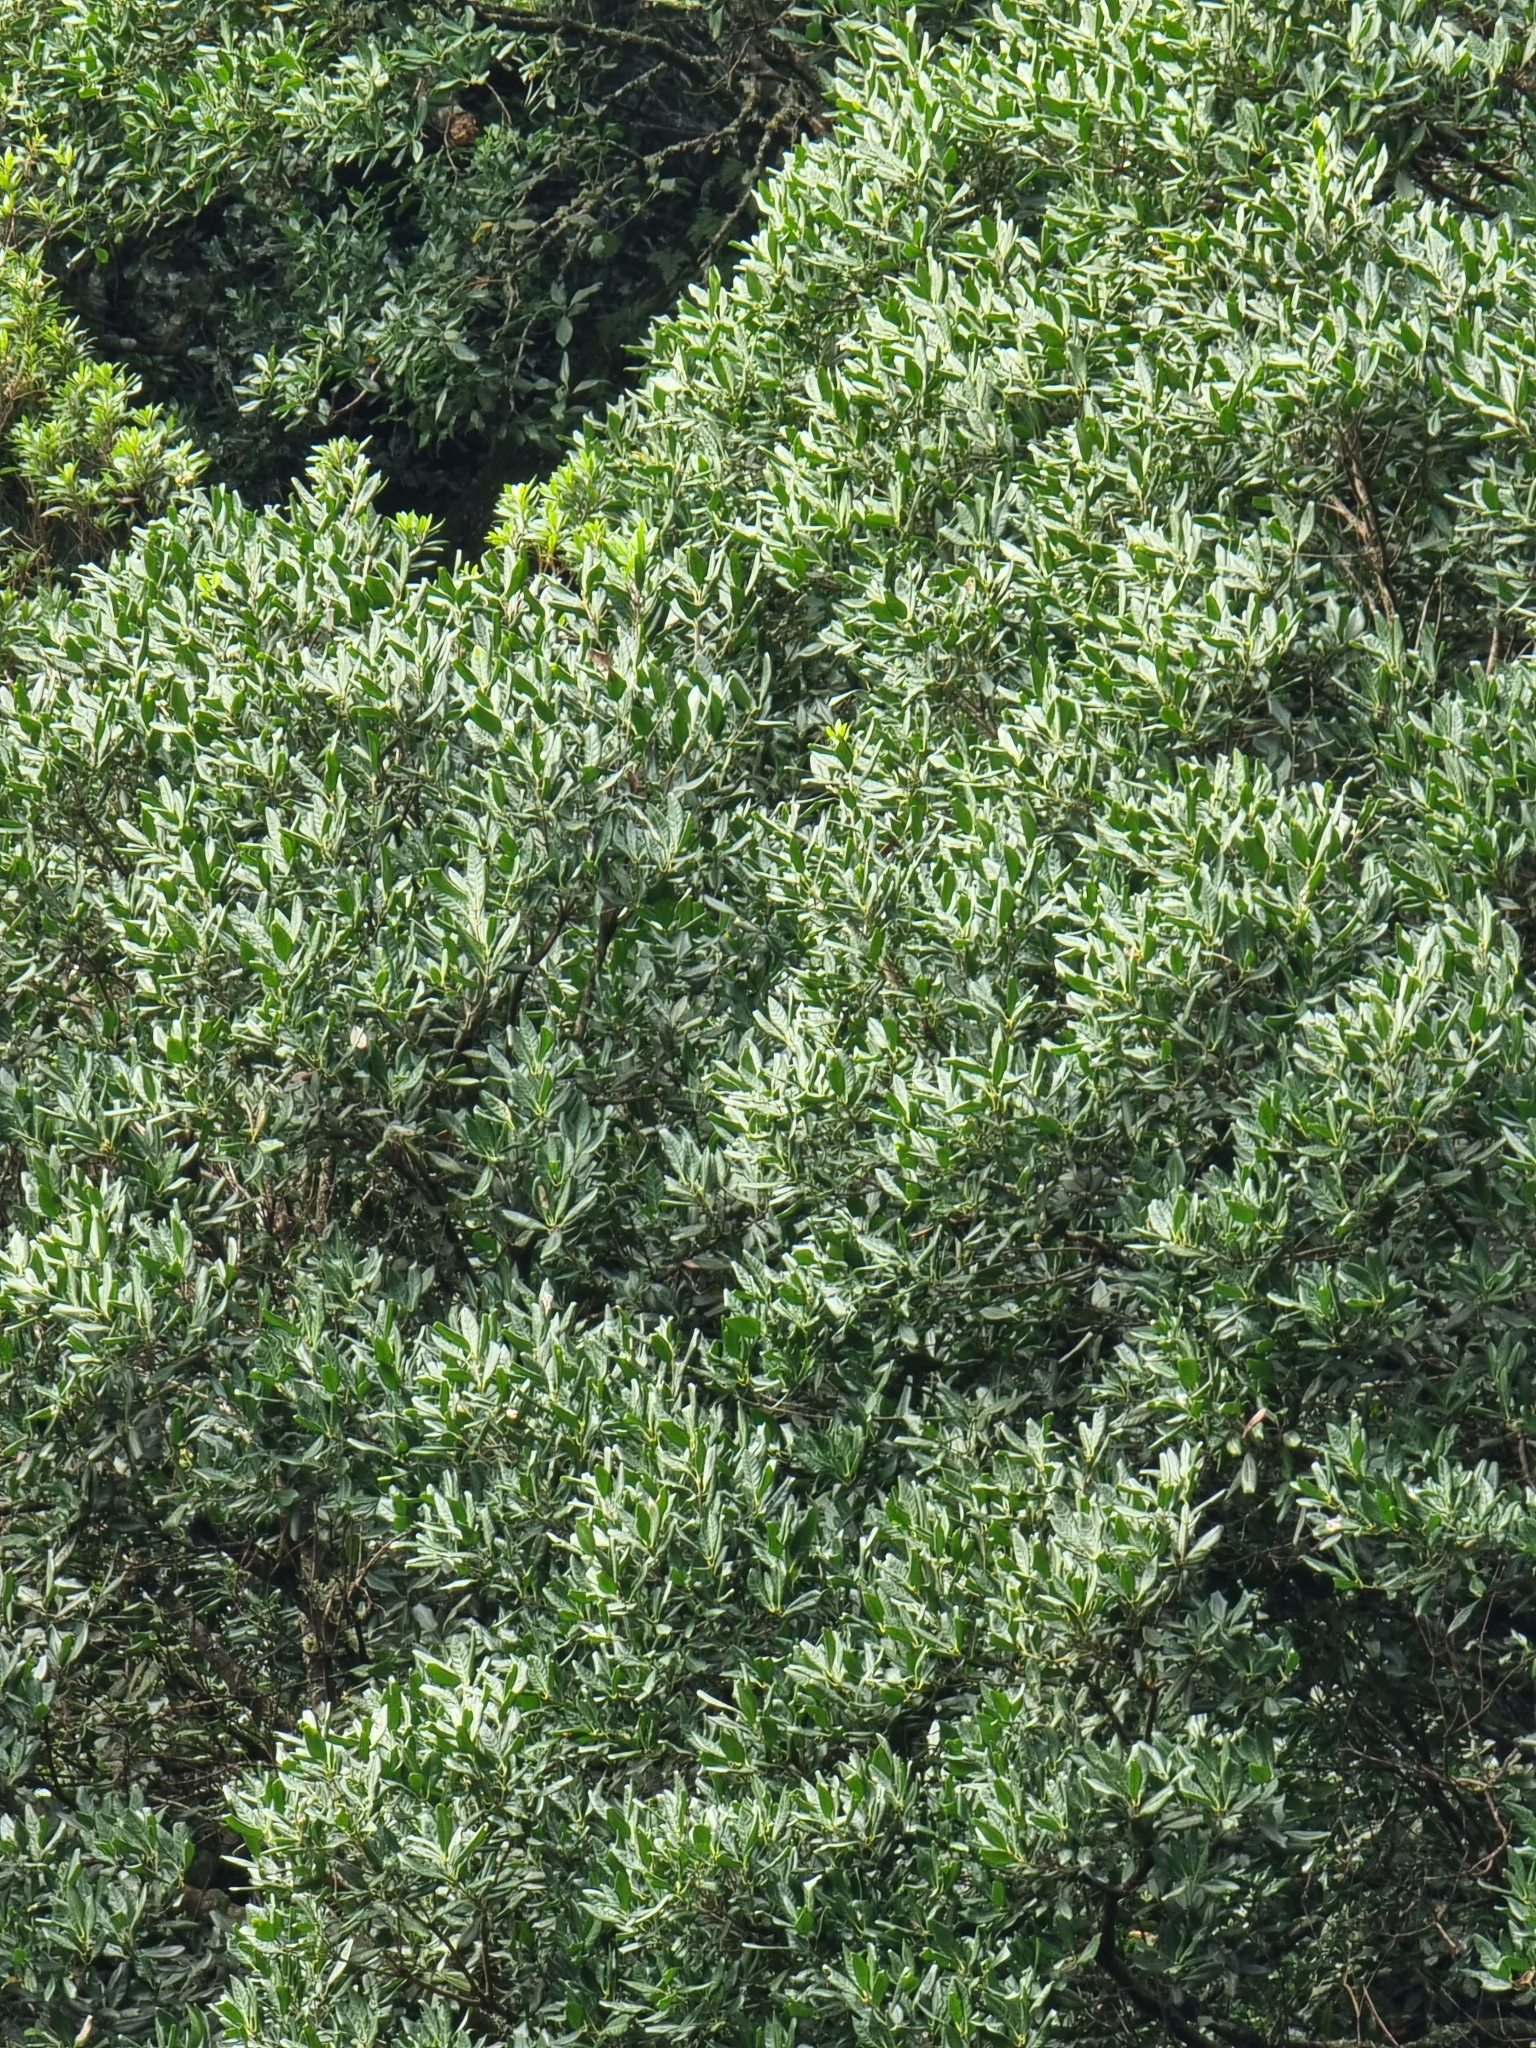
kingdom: Plantae
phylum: Tracheophyta
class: Magnoliopsida
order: Lamiales
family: Oleaceae
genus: Picconia
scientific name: Picconia excelsa
